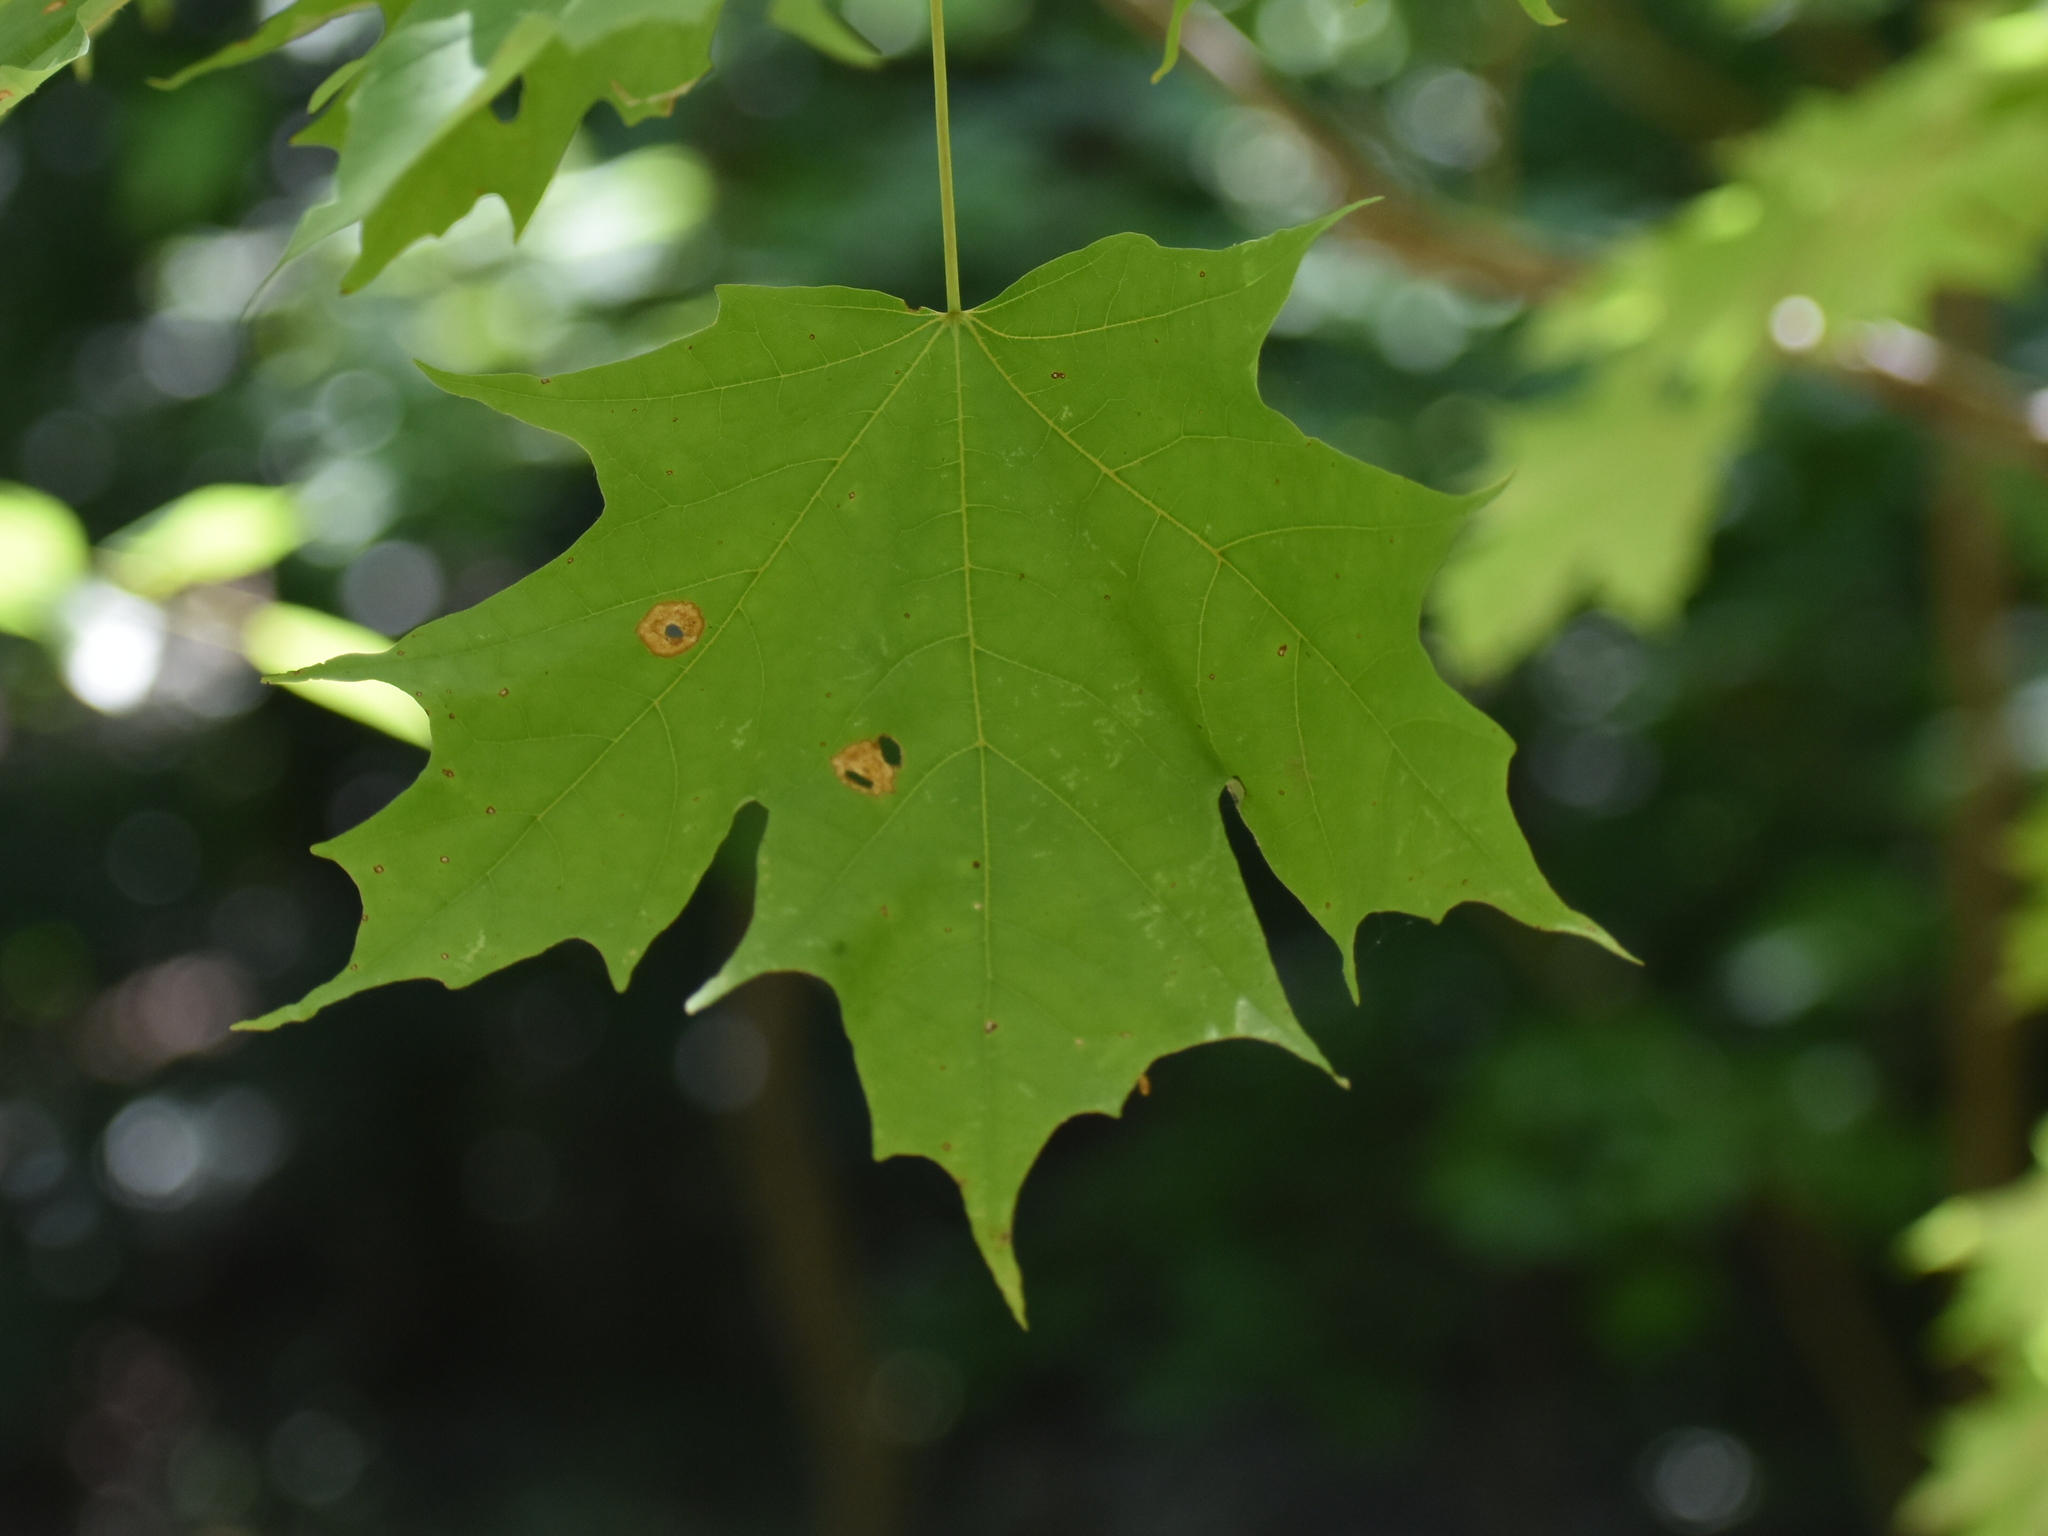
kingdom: Plantae
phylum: Tracheophyta
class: Magnoliopsida
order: Sapindales
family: Sapindaceae
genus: Acer
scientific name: Acer saccharum
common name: Sugar maple
